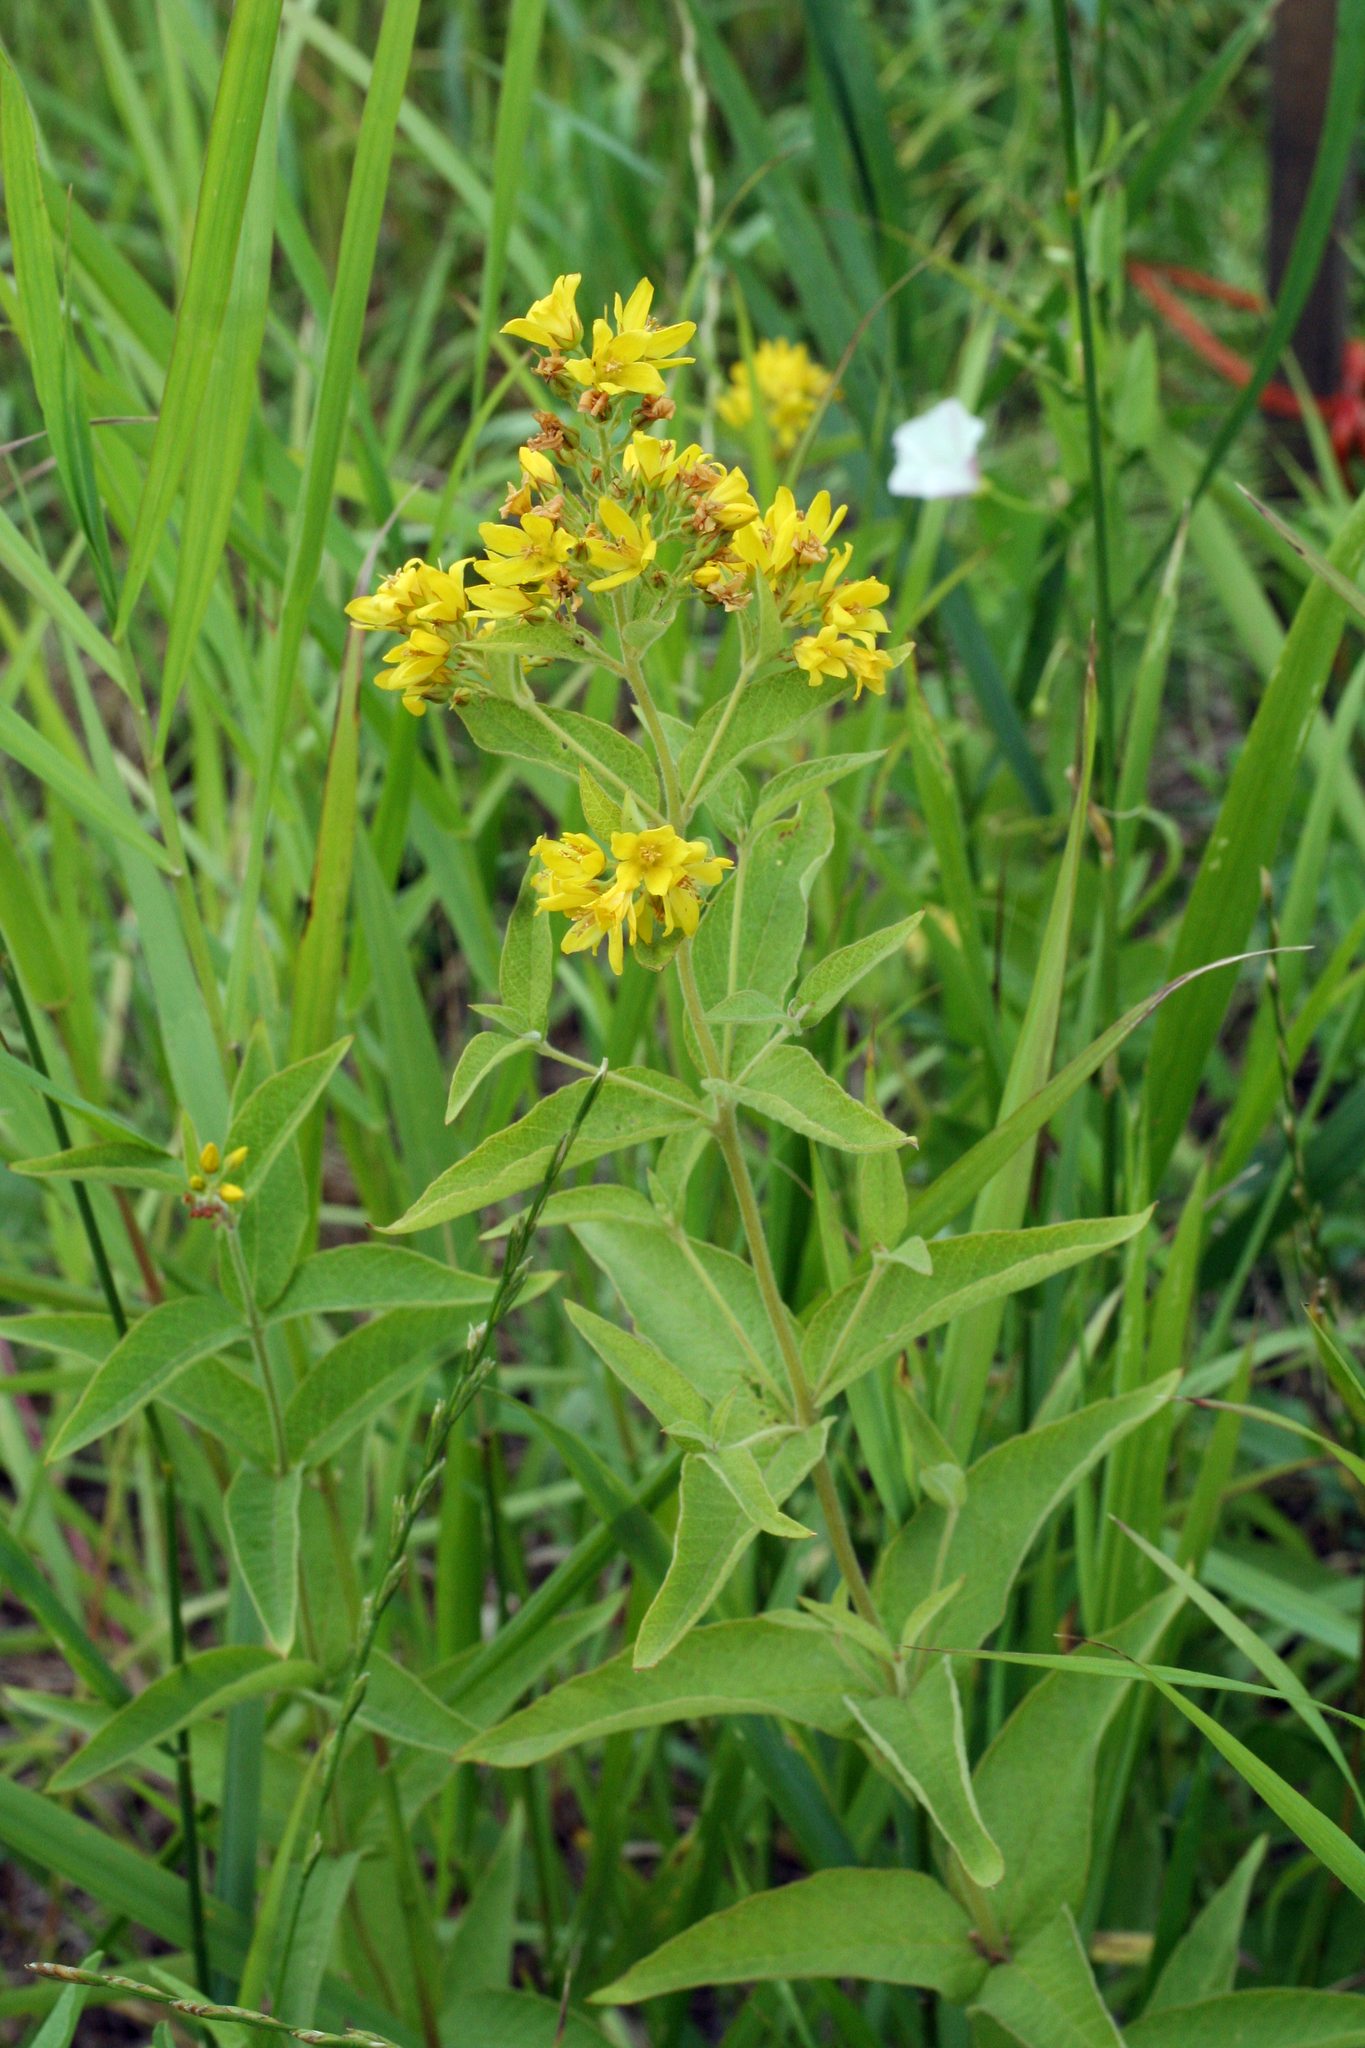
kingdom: Plantae
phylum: Tracheophyta
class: Magnoliopsida
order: Ericales
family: Primulaceae
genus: Lysimachia
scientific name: Lysimachia vulgaris
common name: Yellow loosestrife
